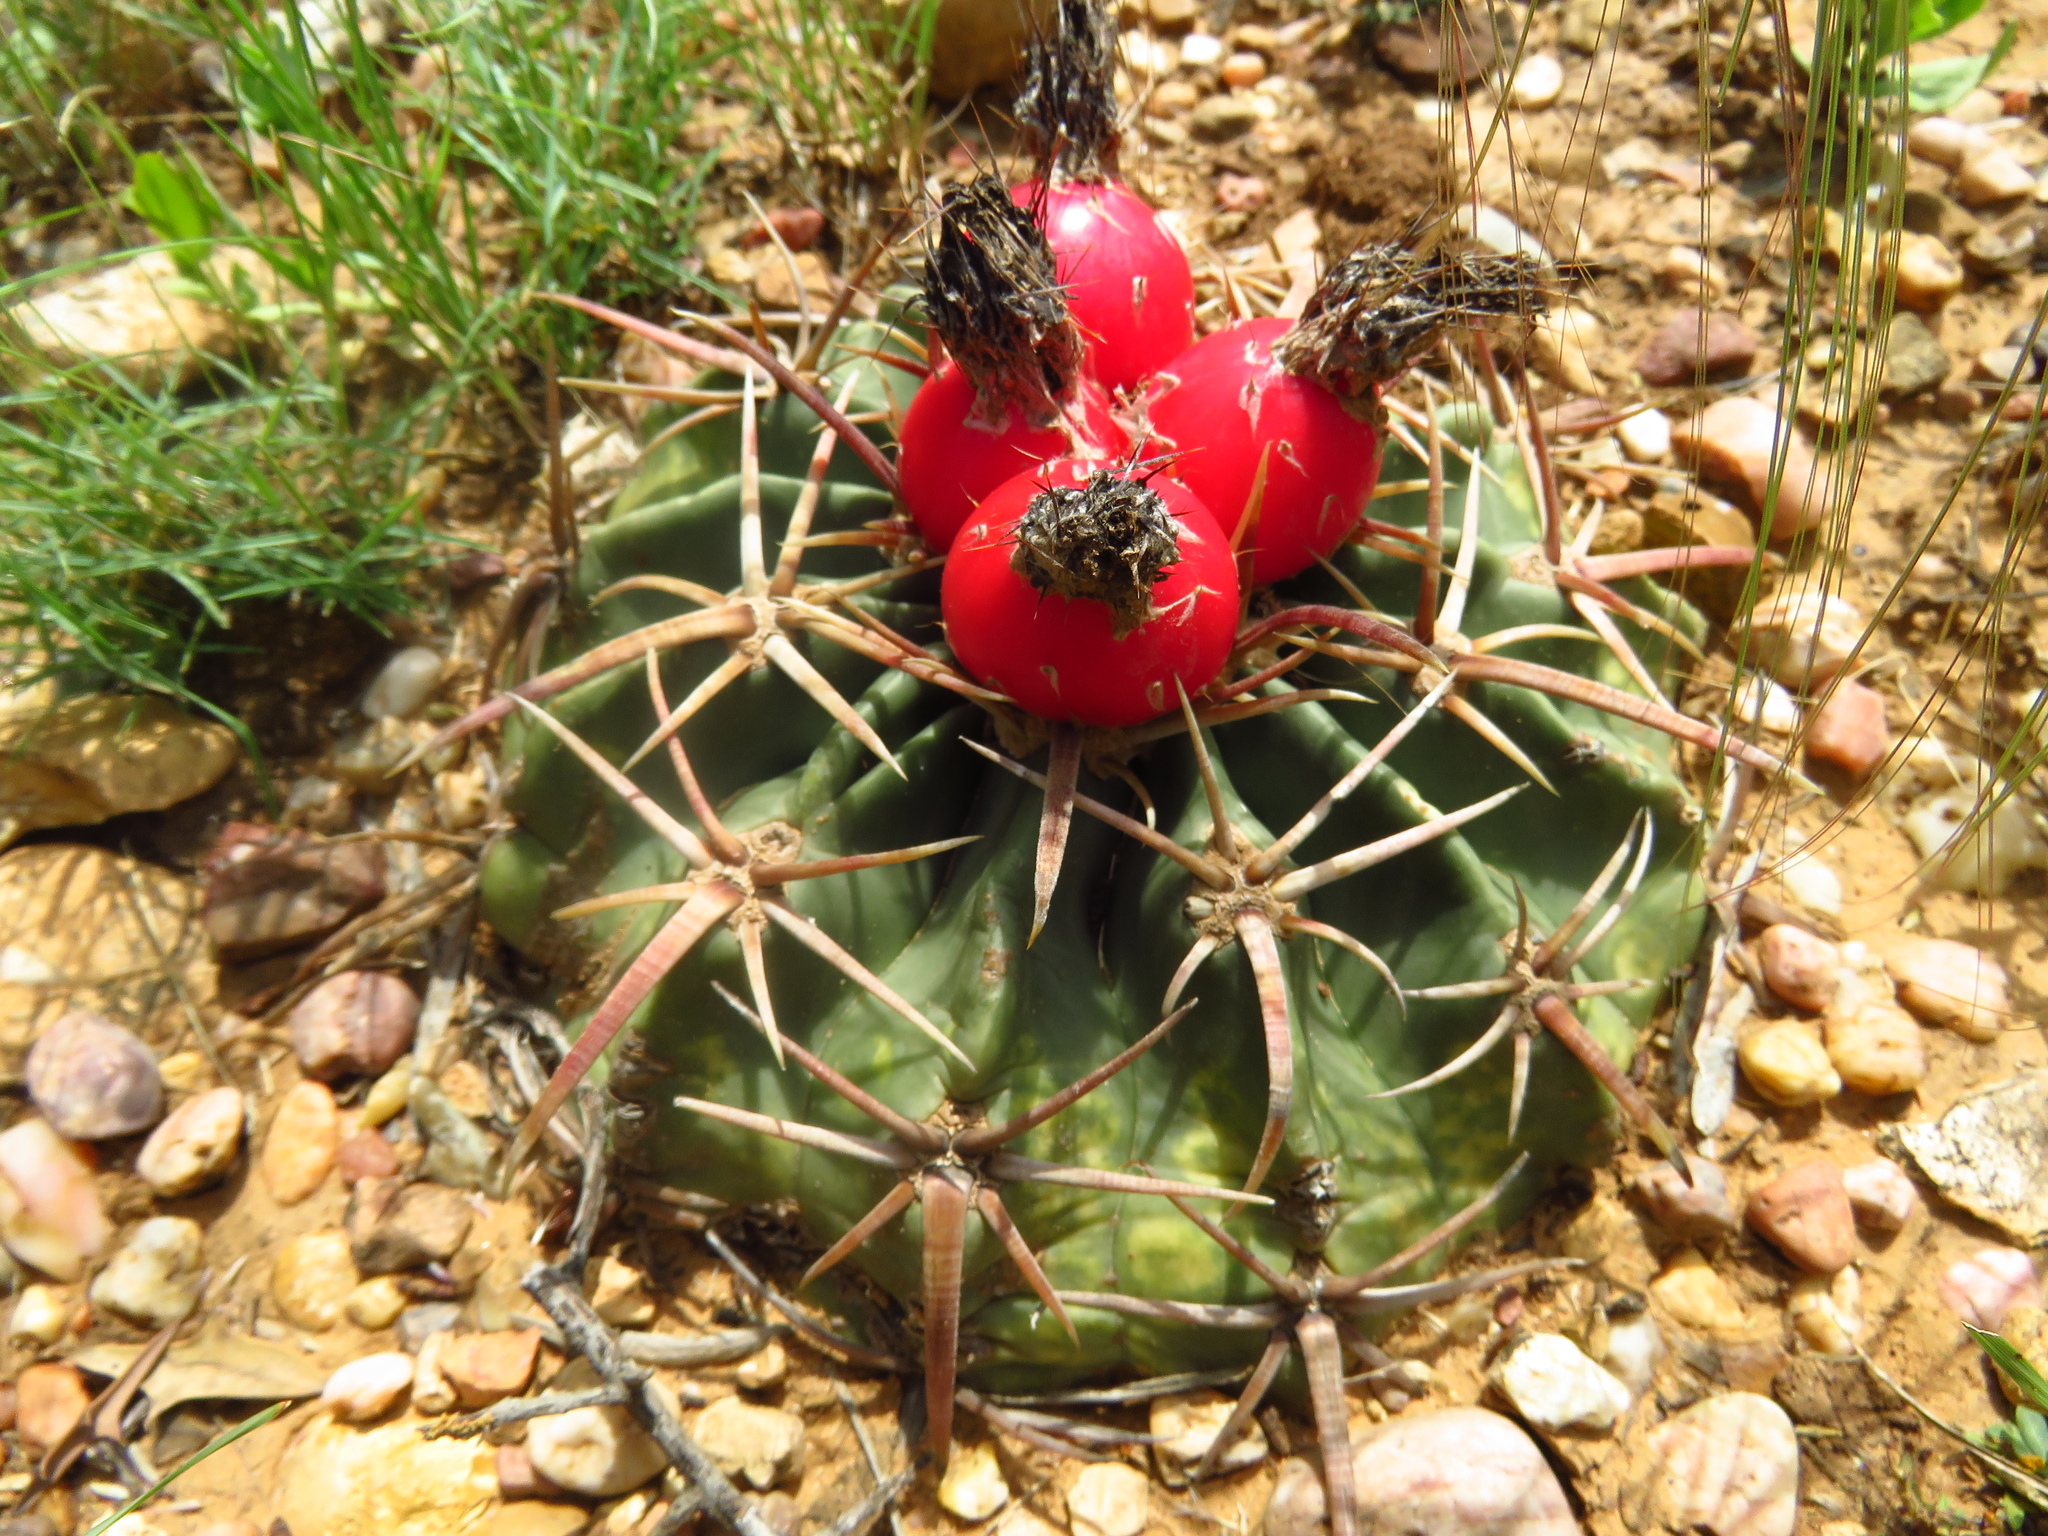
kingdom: Plantae
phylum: Tracheophyta
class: Magnoliopsida
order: Caryophyllales
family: Cactaceae
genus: Echinocactus
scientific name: Echinocactus texensis
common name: Devil's pincushion
